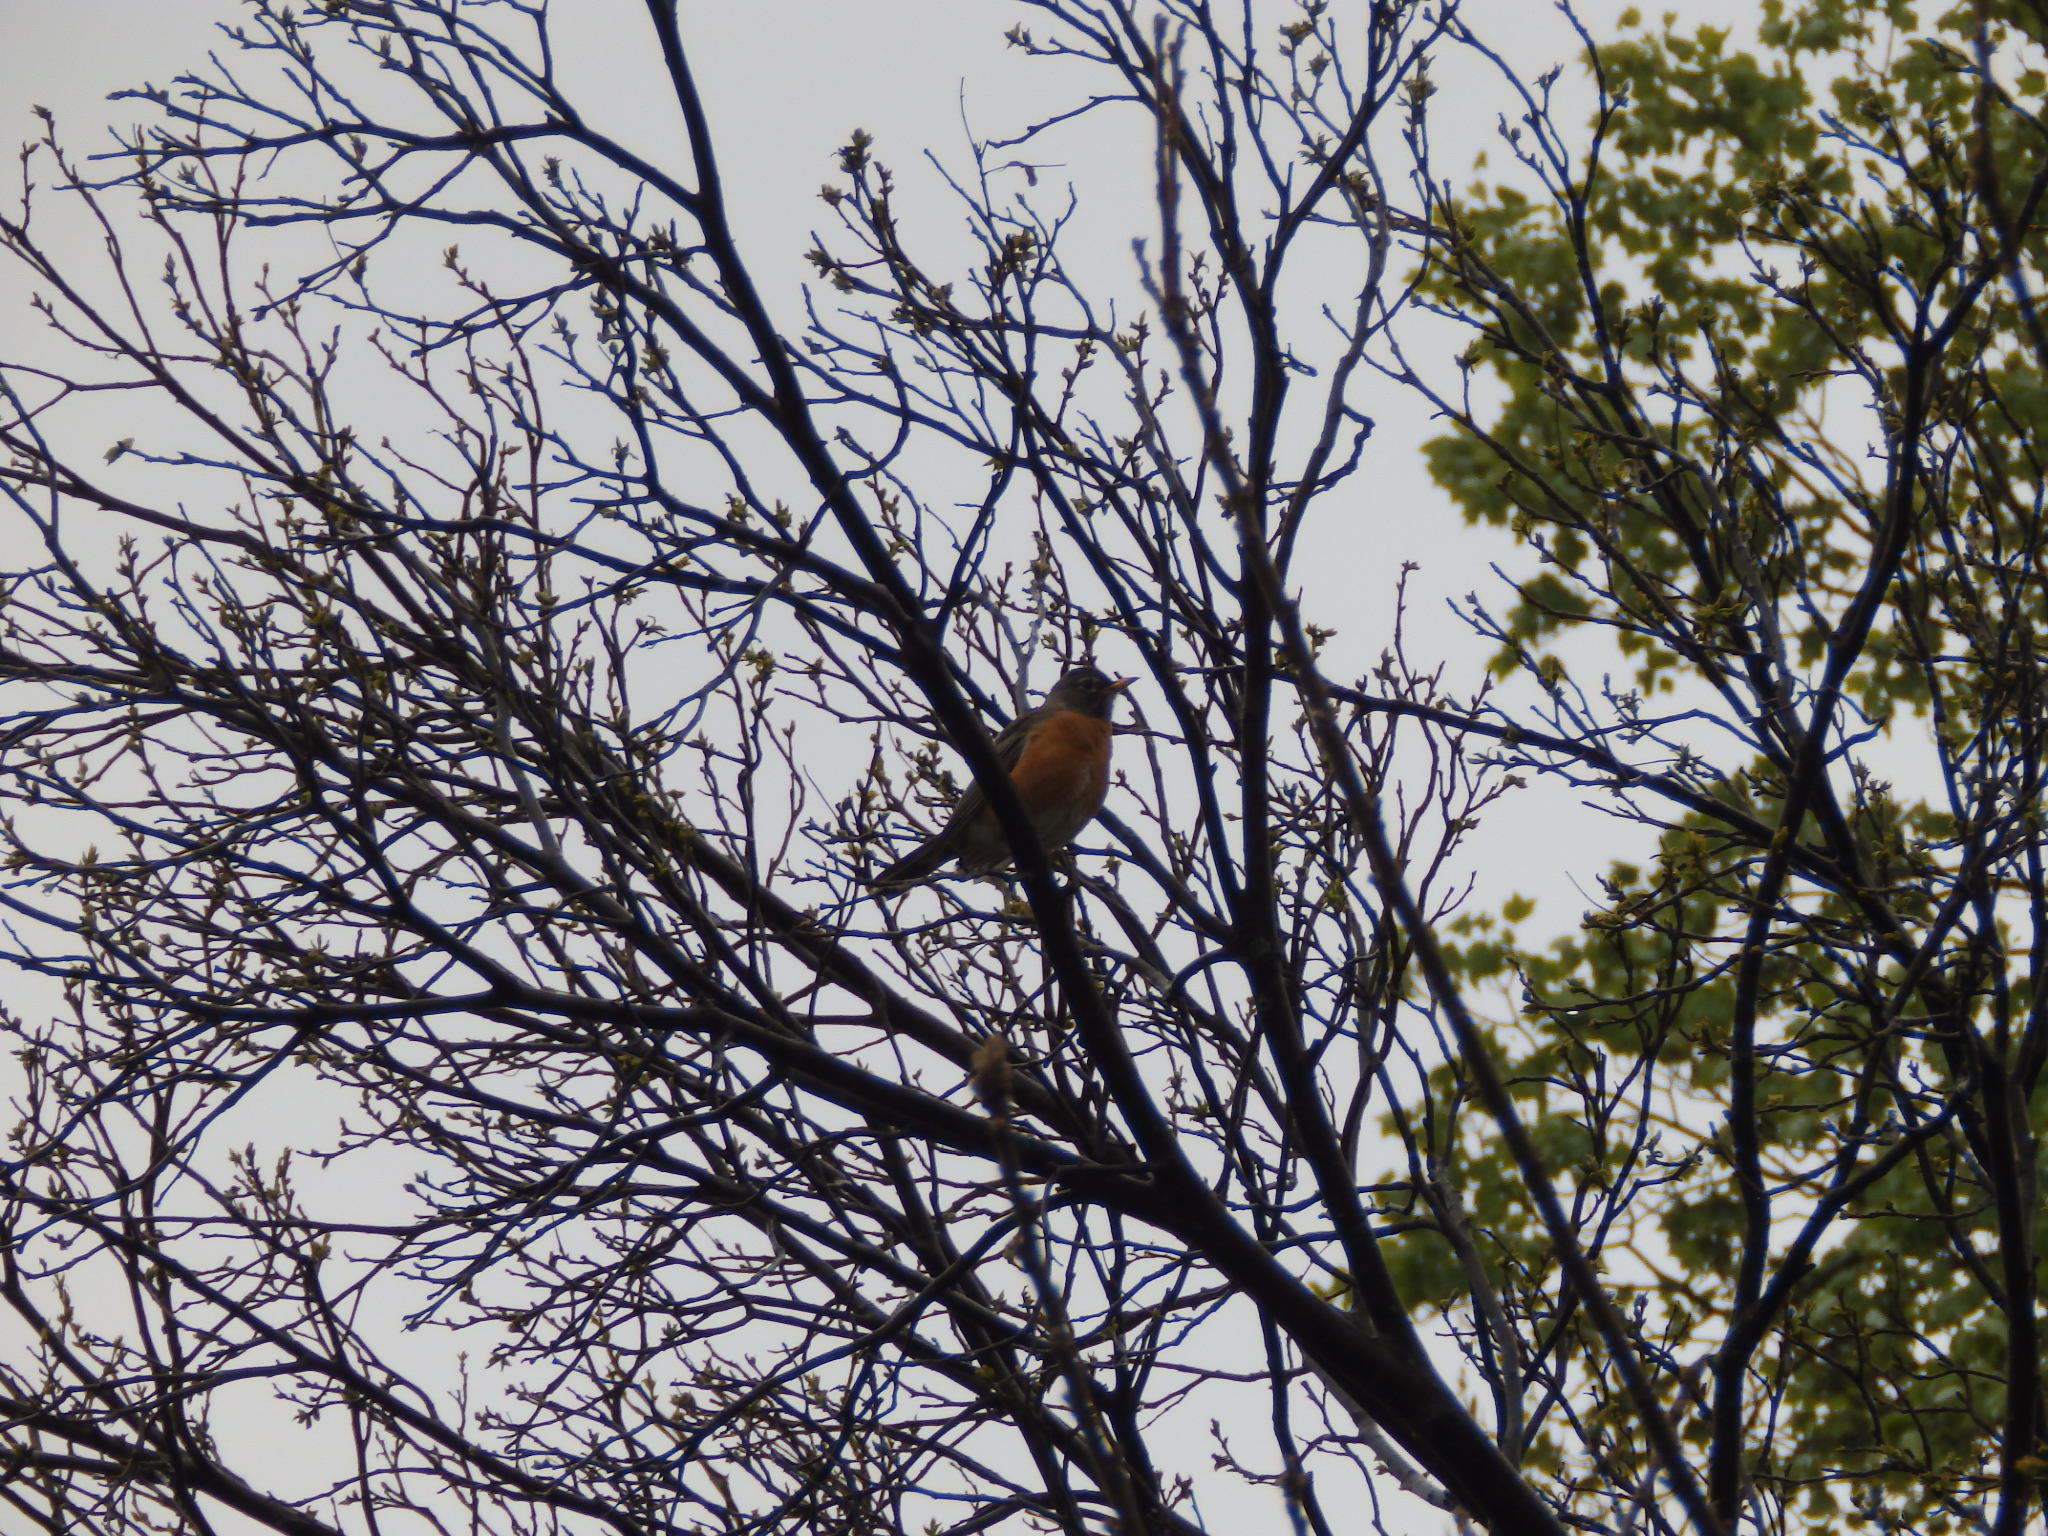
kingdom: Animalia
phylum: Chordata
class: Aves
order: Passeriformes
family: Turdidae
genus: Turdus
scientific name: Turdus migratorius
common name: American robin
